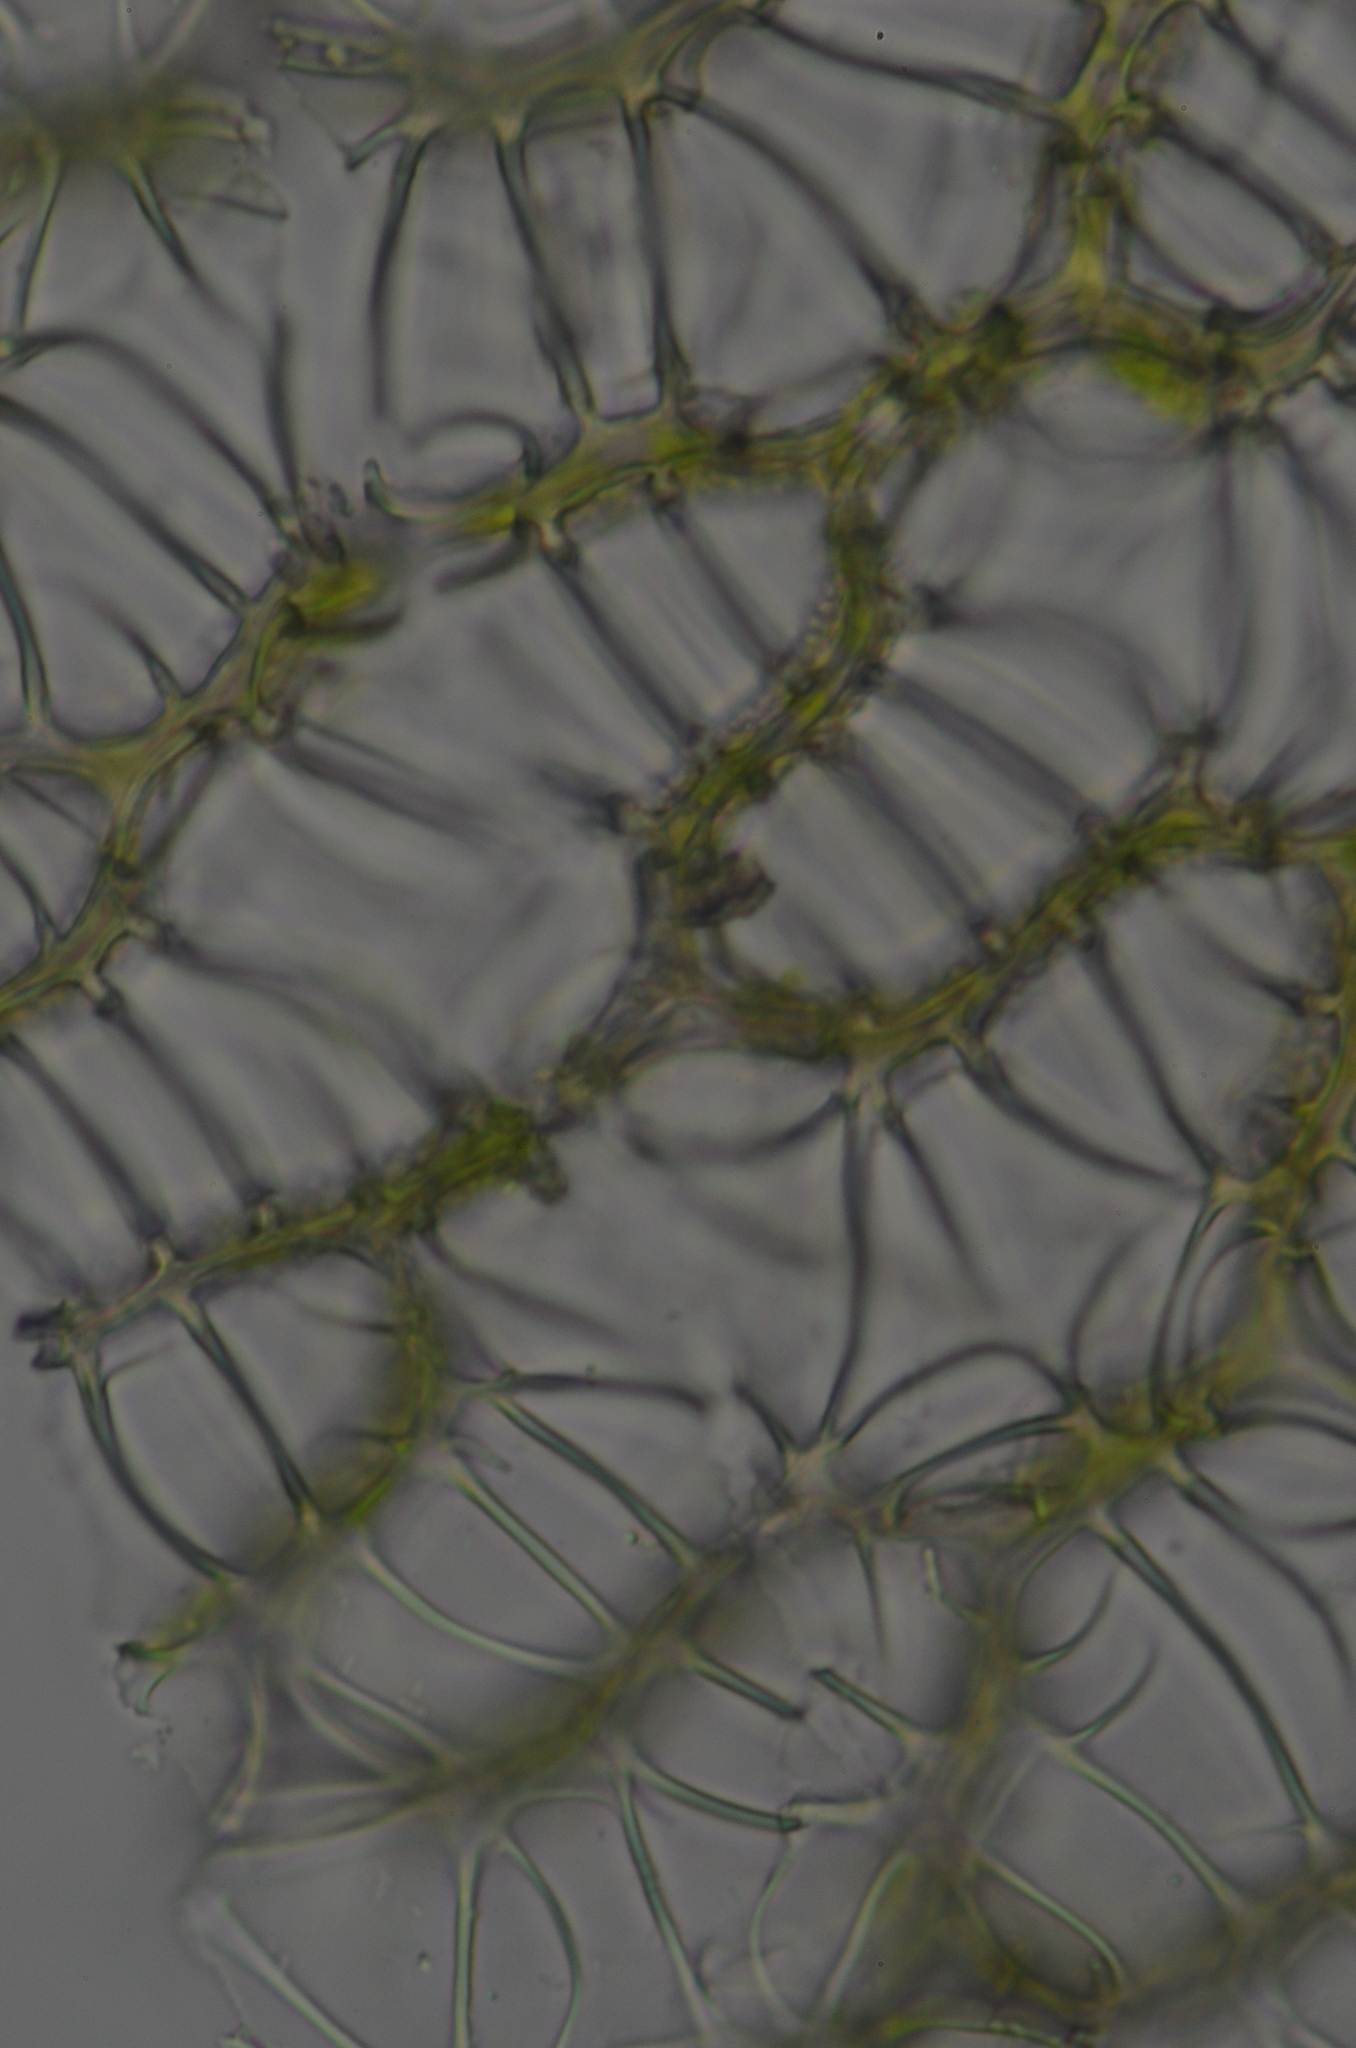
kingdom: Plantae
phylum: Bryophyta
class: Sphagnopsida
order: Sphagnales
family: Sphagnaceae
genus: Sphagnum
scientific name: Sphagnum papillosum
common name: Papillose peat moss
